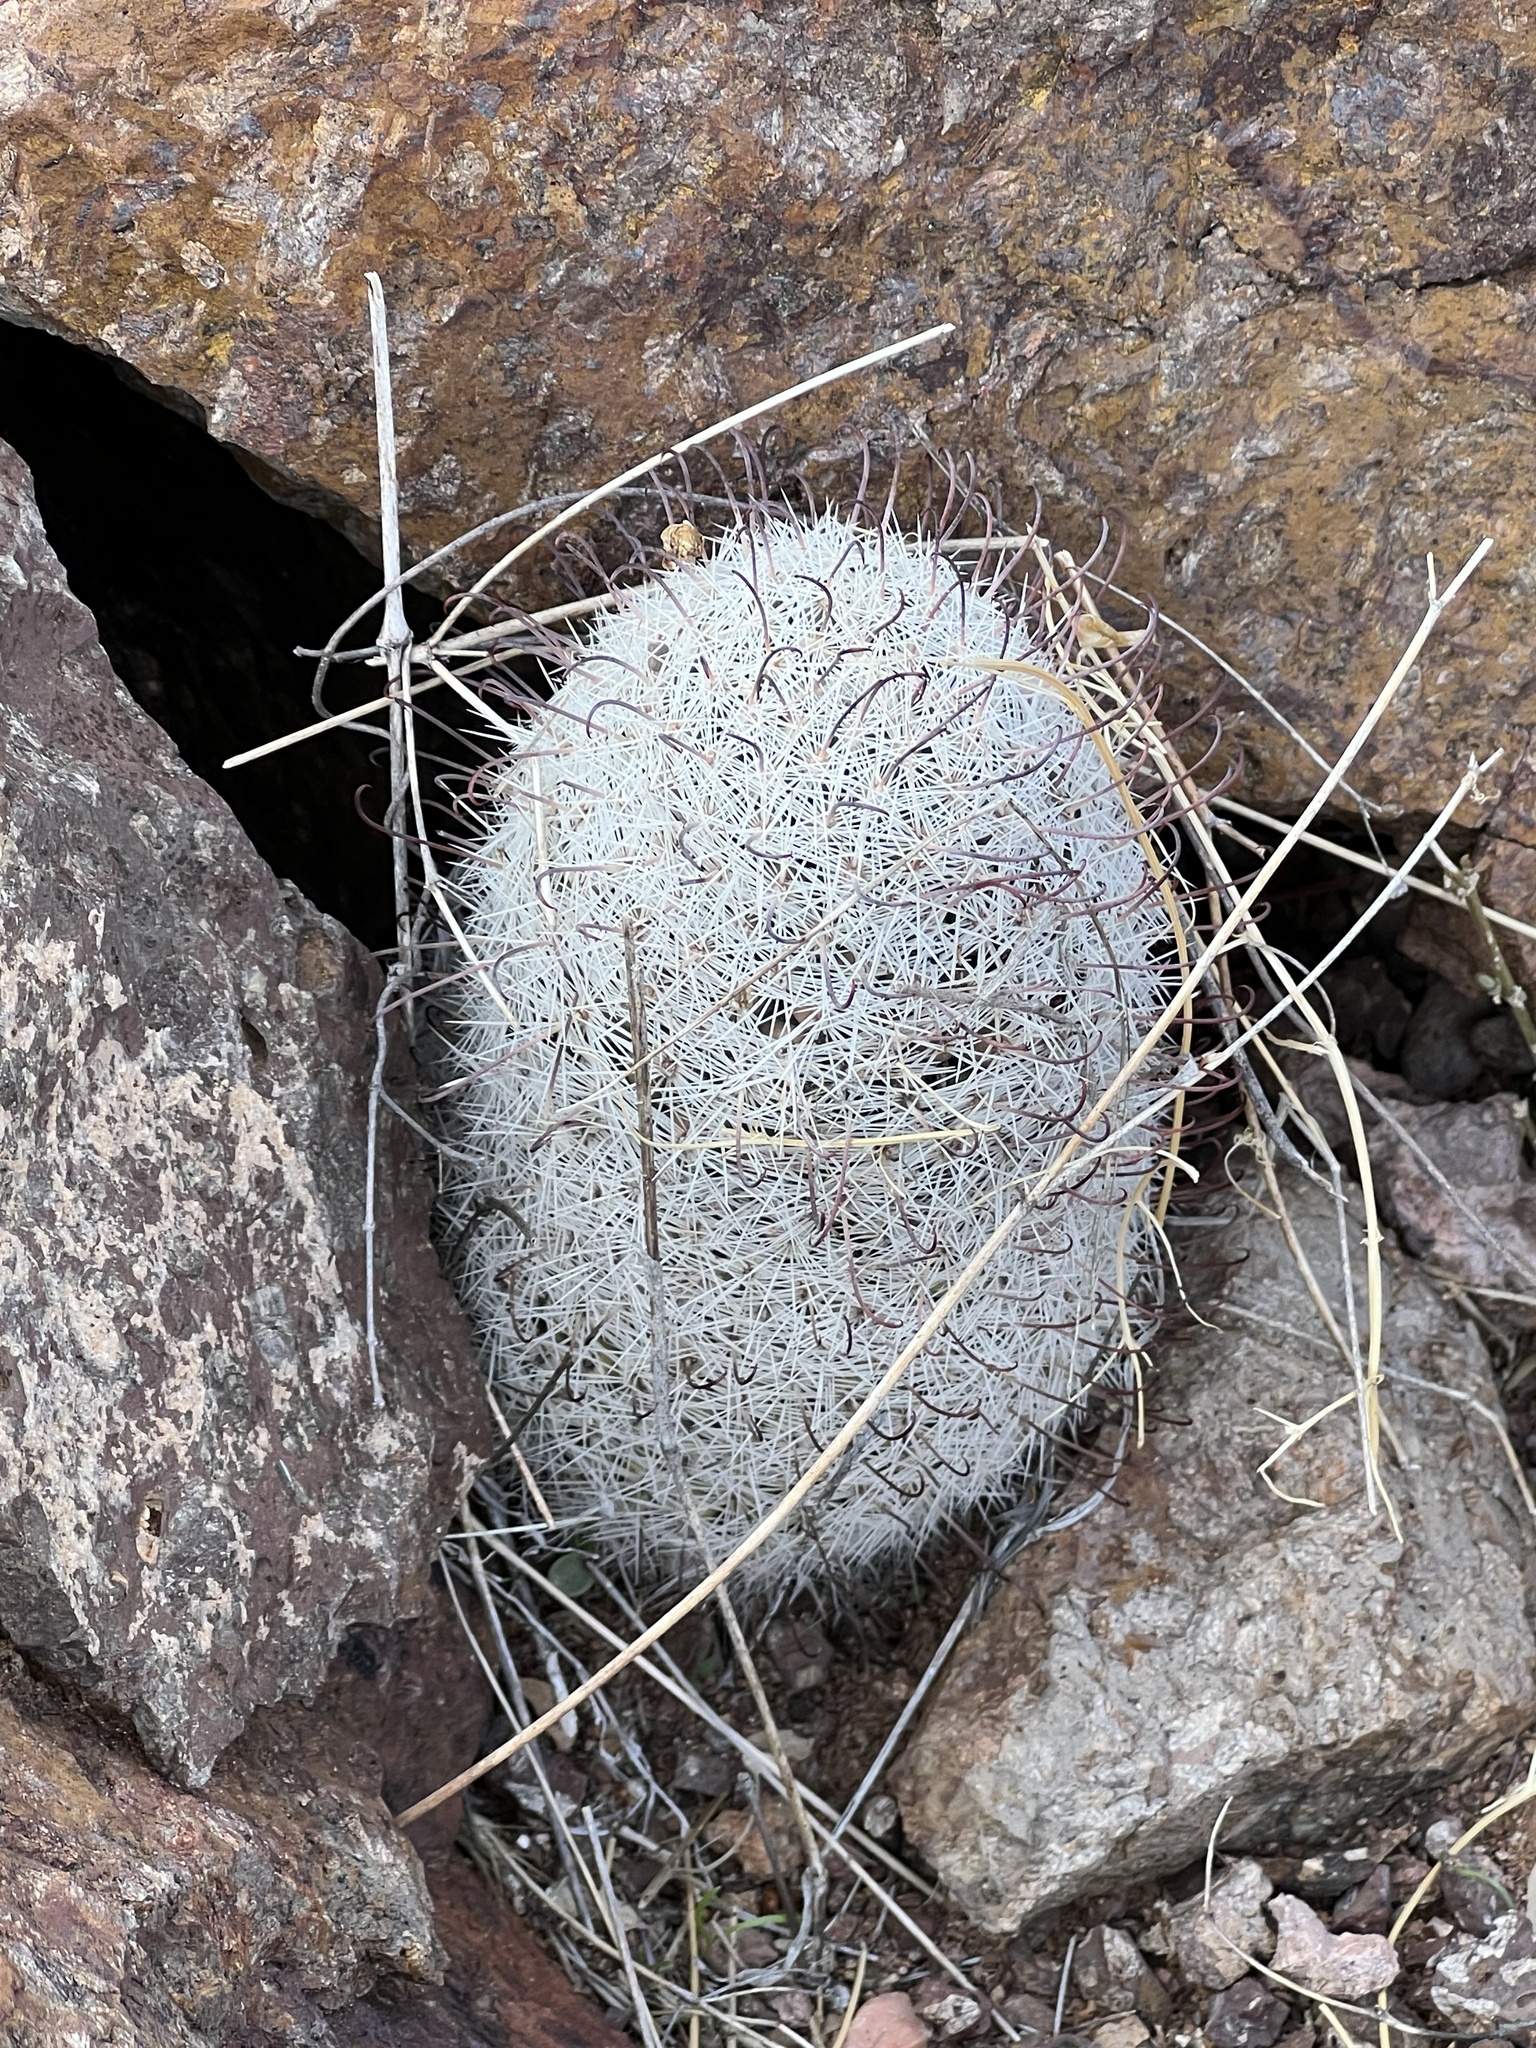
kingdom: Plantae
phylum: Tracheophyta
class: Magnoliopsida
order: Caryophyllales
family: Cactaceae
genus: Cochemiea
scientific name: Cochemiea grahamii
